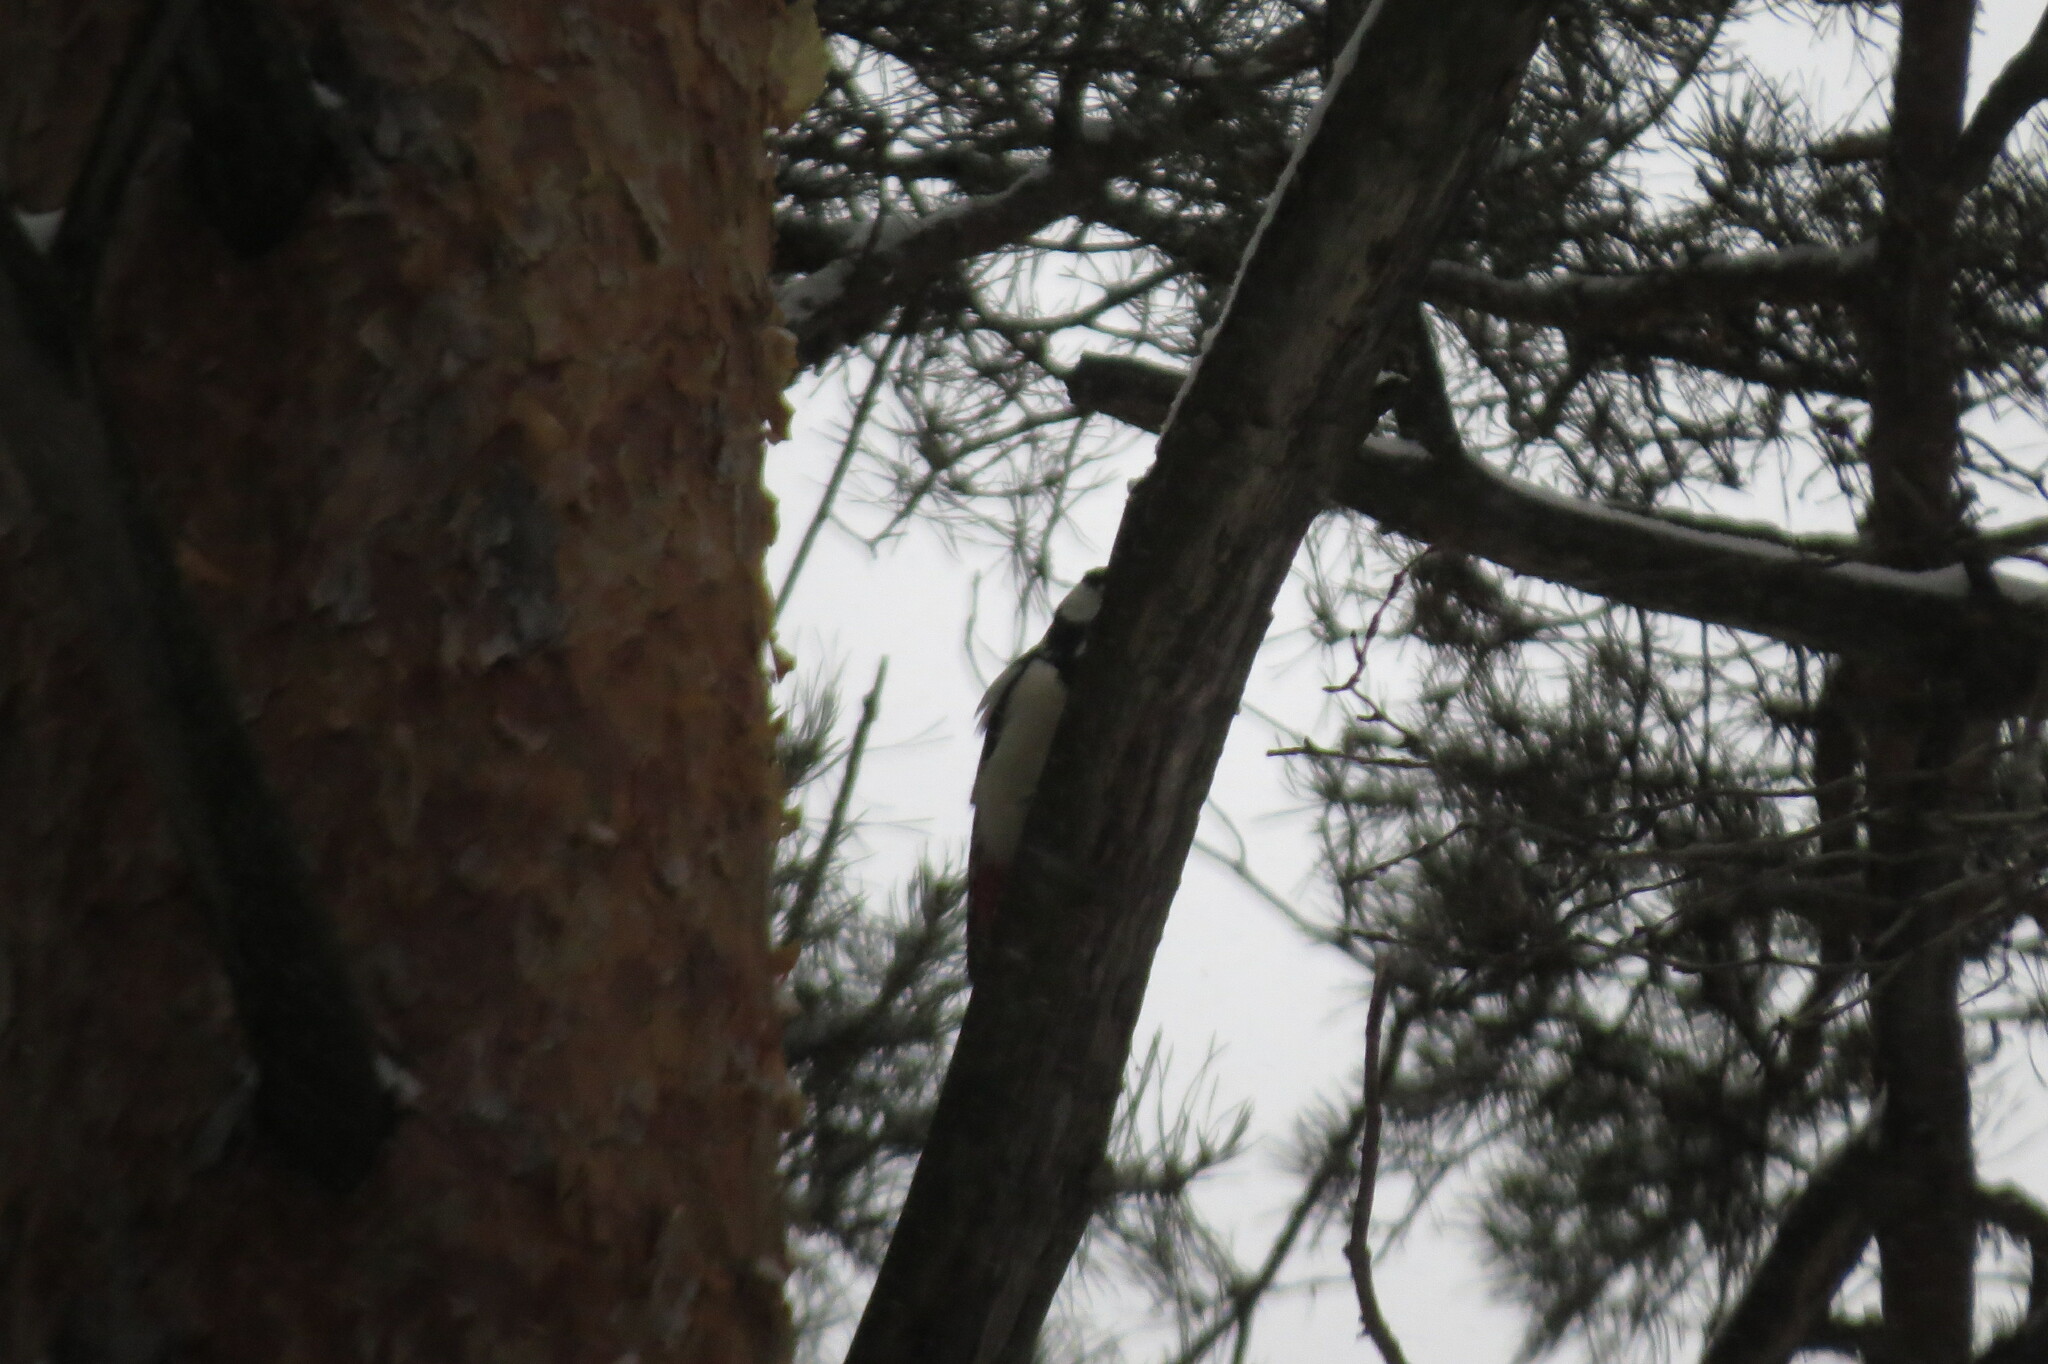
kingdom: Animalia
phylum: Chordata
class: Aves
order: Piciformes
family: Picidae
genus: Dendrocopos
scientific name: Dendrocopos major
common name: Great spotted woodpecker
